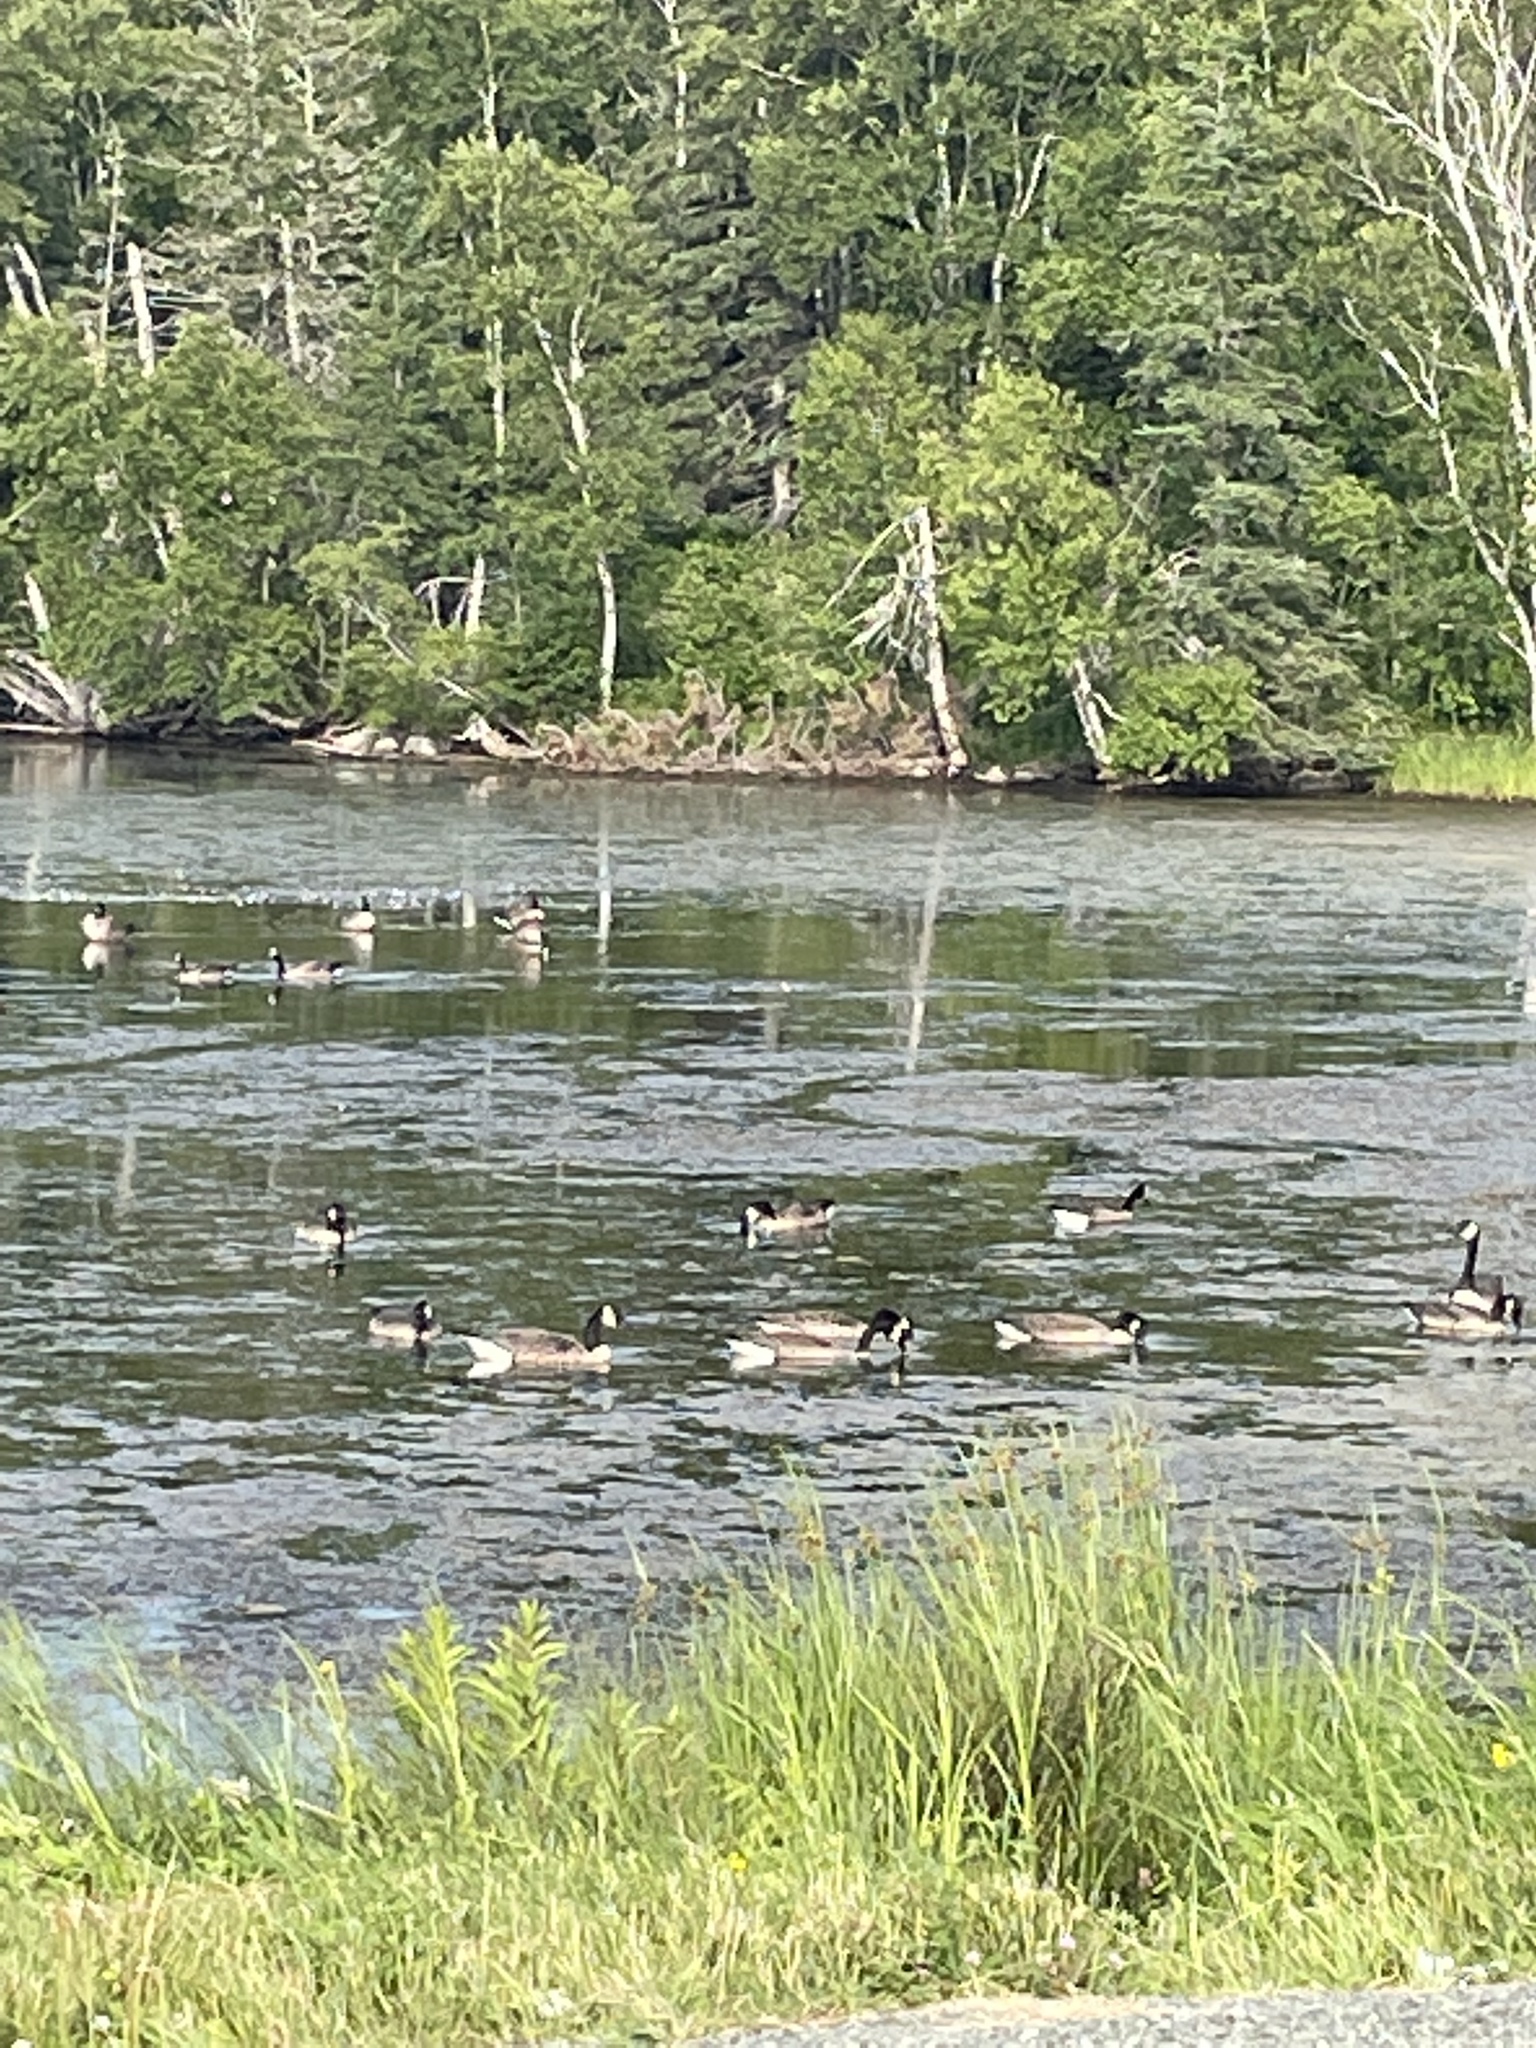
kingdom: Animalia
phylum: Chordata
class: Aves
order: Anseriformes
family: Anatidae
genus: Branta
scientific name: Branta canadensis
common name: Canada goose
